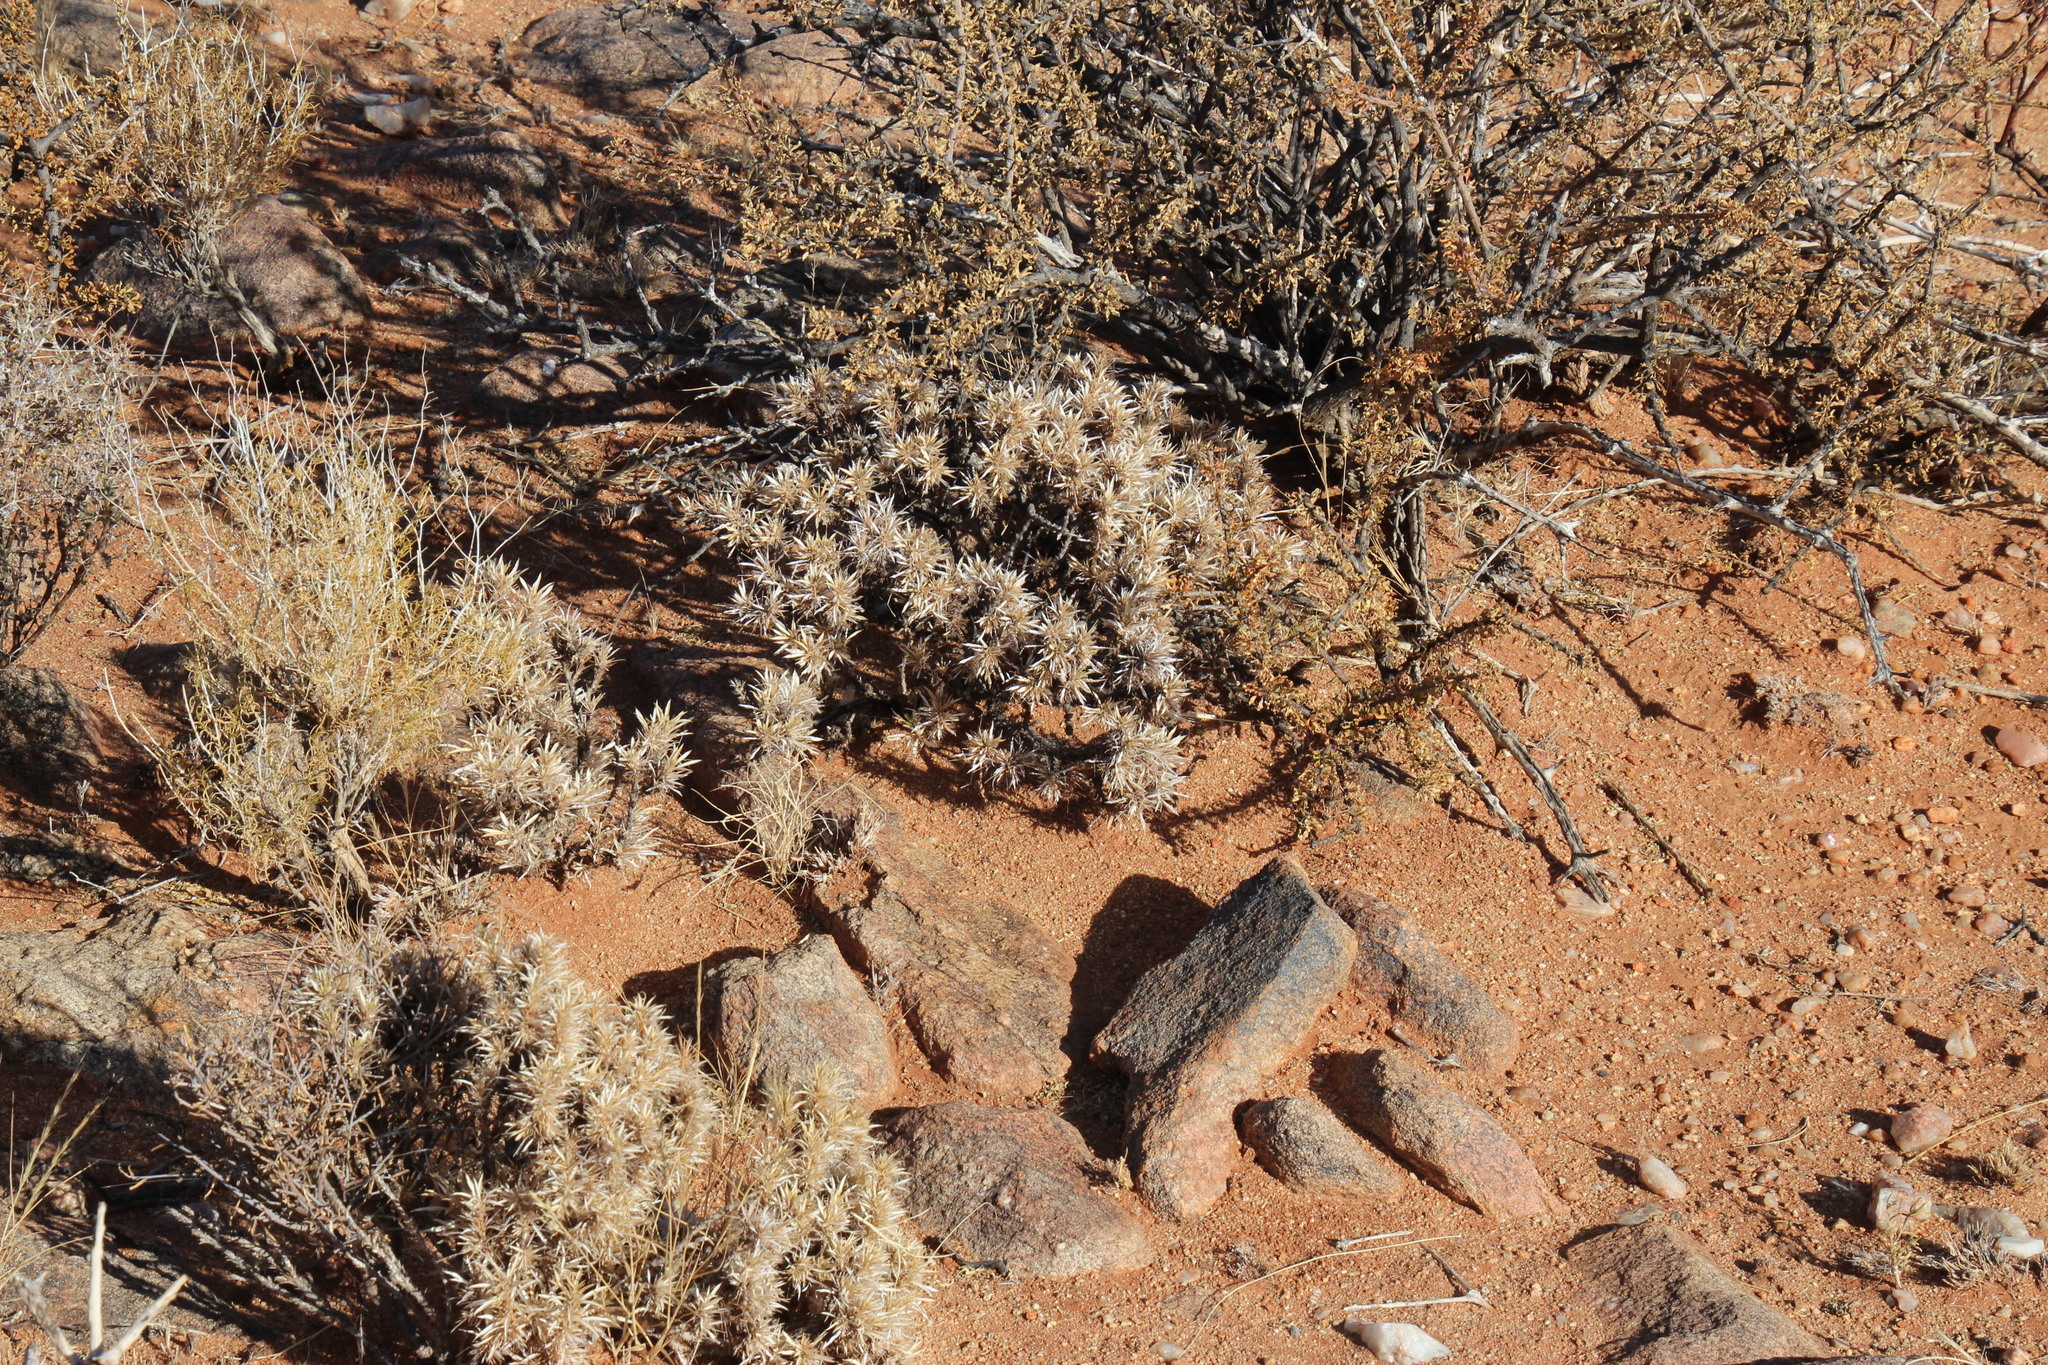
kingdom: Plantae
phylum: Tracheophyta
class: Magnoliopsida
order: Lamiales
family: Scrophulariaceae
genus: Aptosimum
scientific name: Aptosimum spinescens
